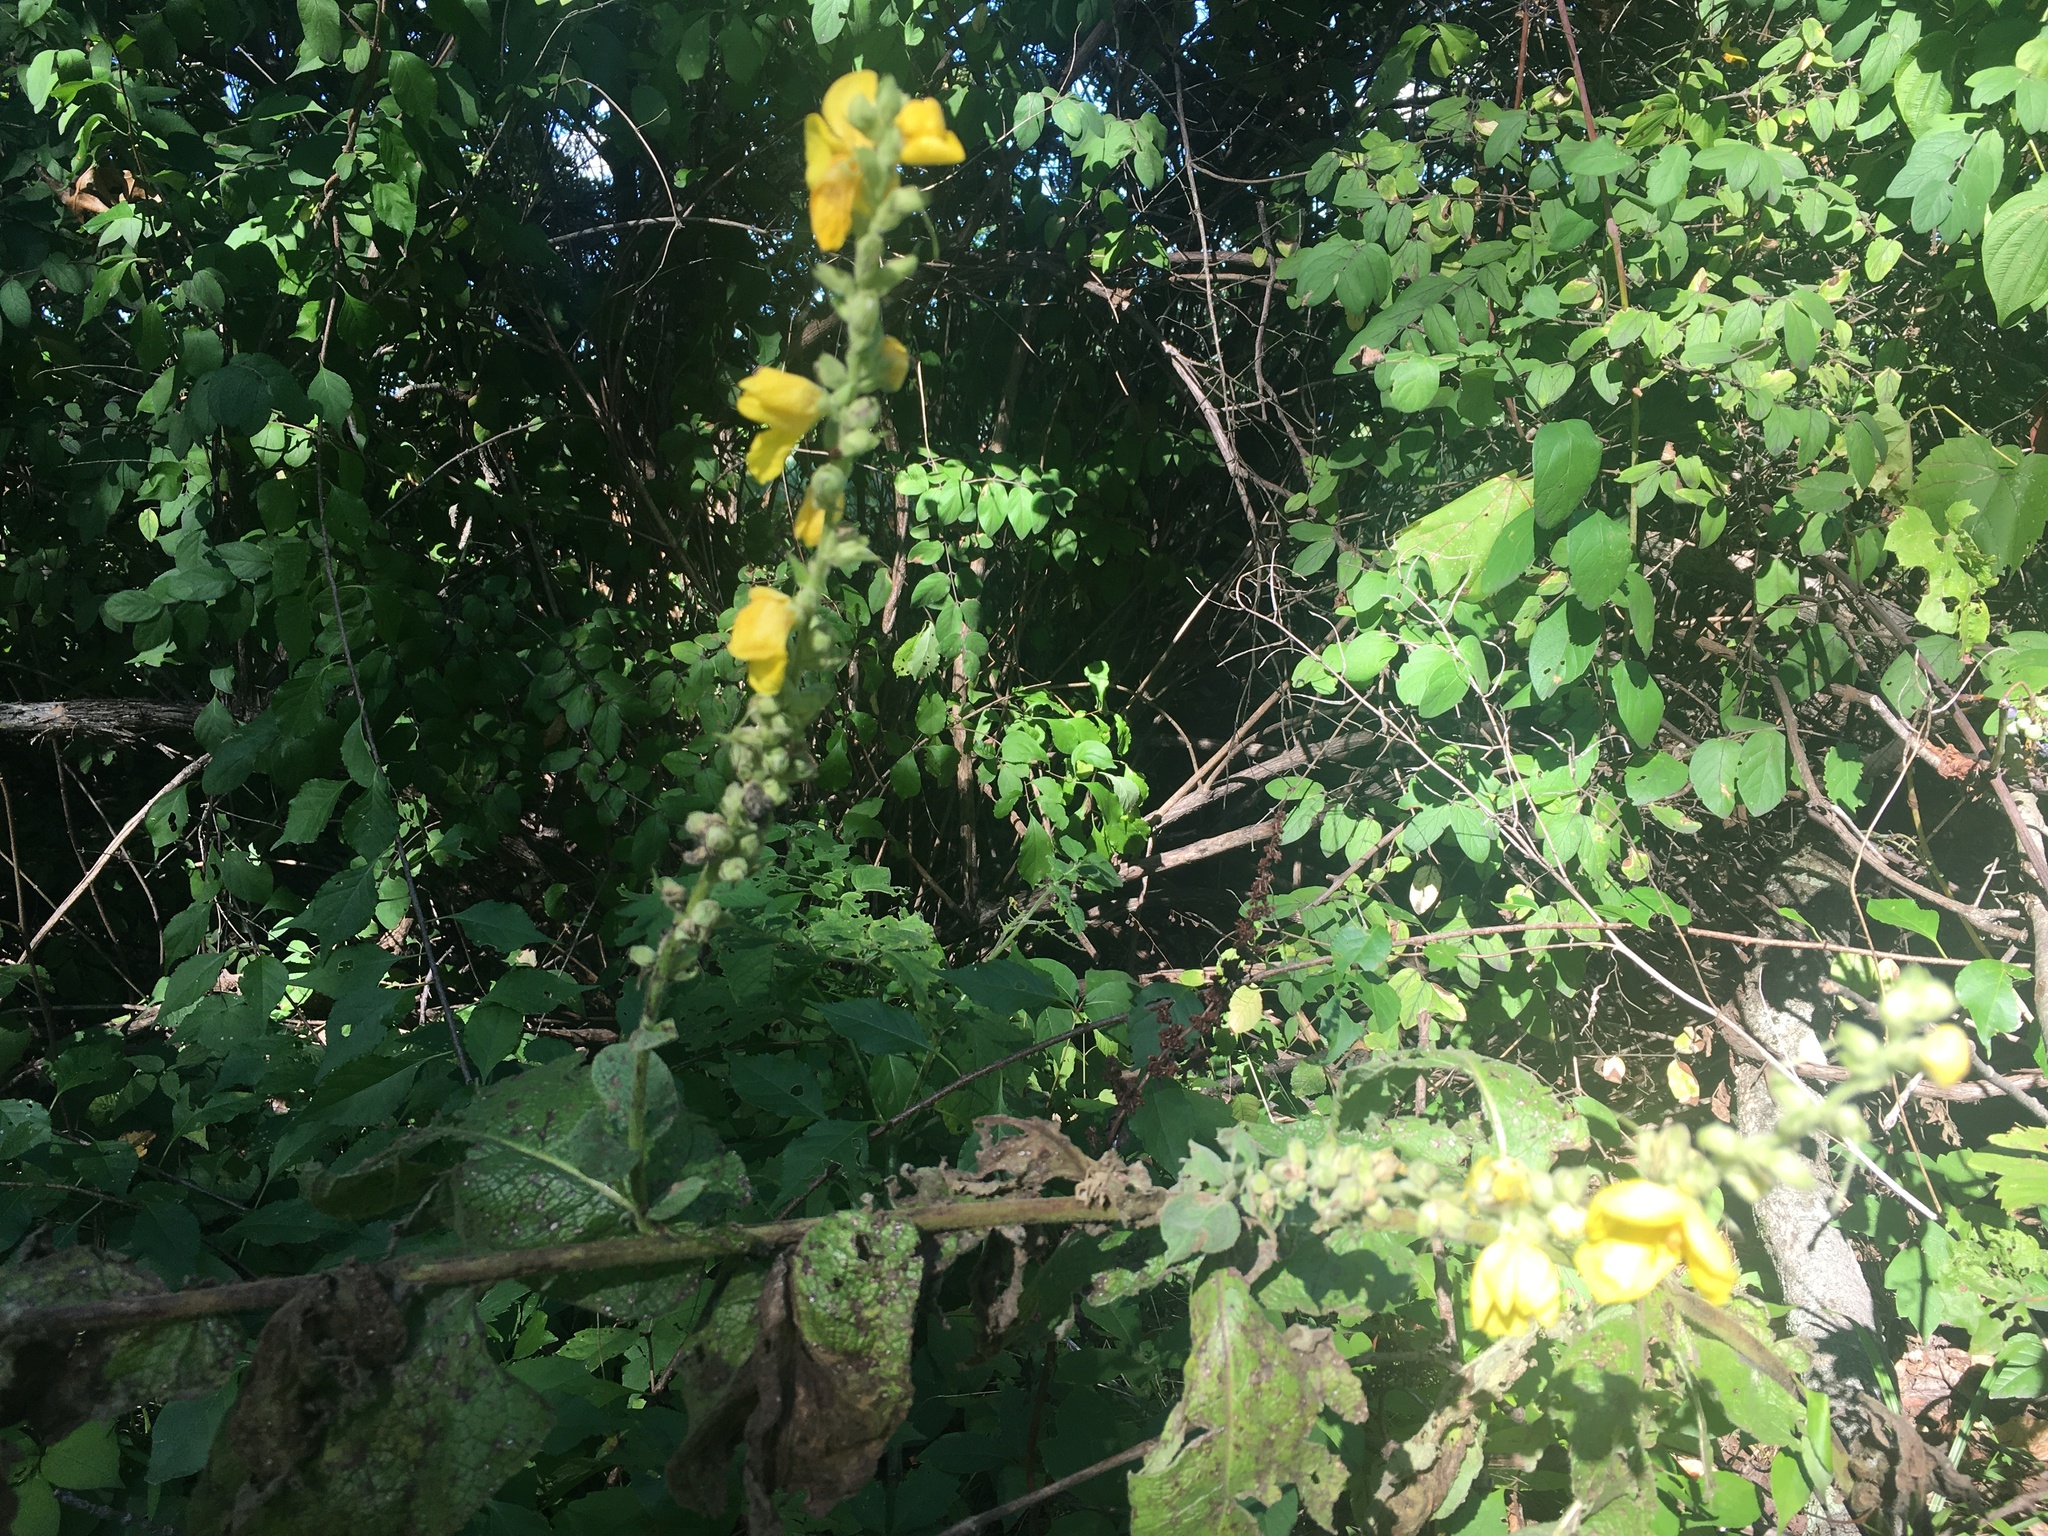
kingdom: Plantae
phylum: Tracheophyta
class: Magnoliopsida
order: Lamiales
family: Scrophulariaceae
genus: Verbascum
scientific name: Verbascum phlomoides
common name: Orange mullein
